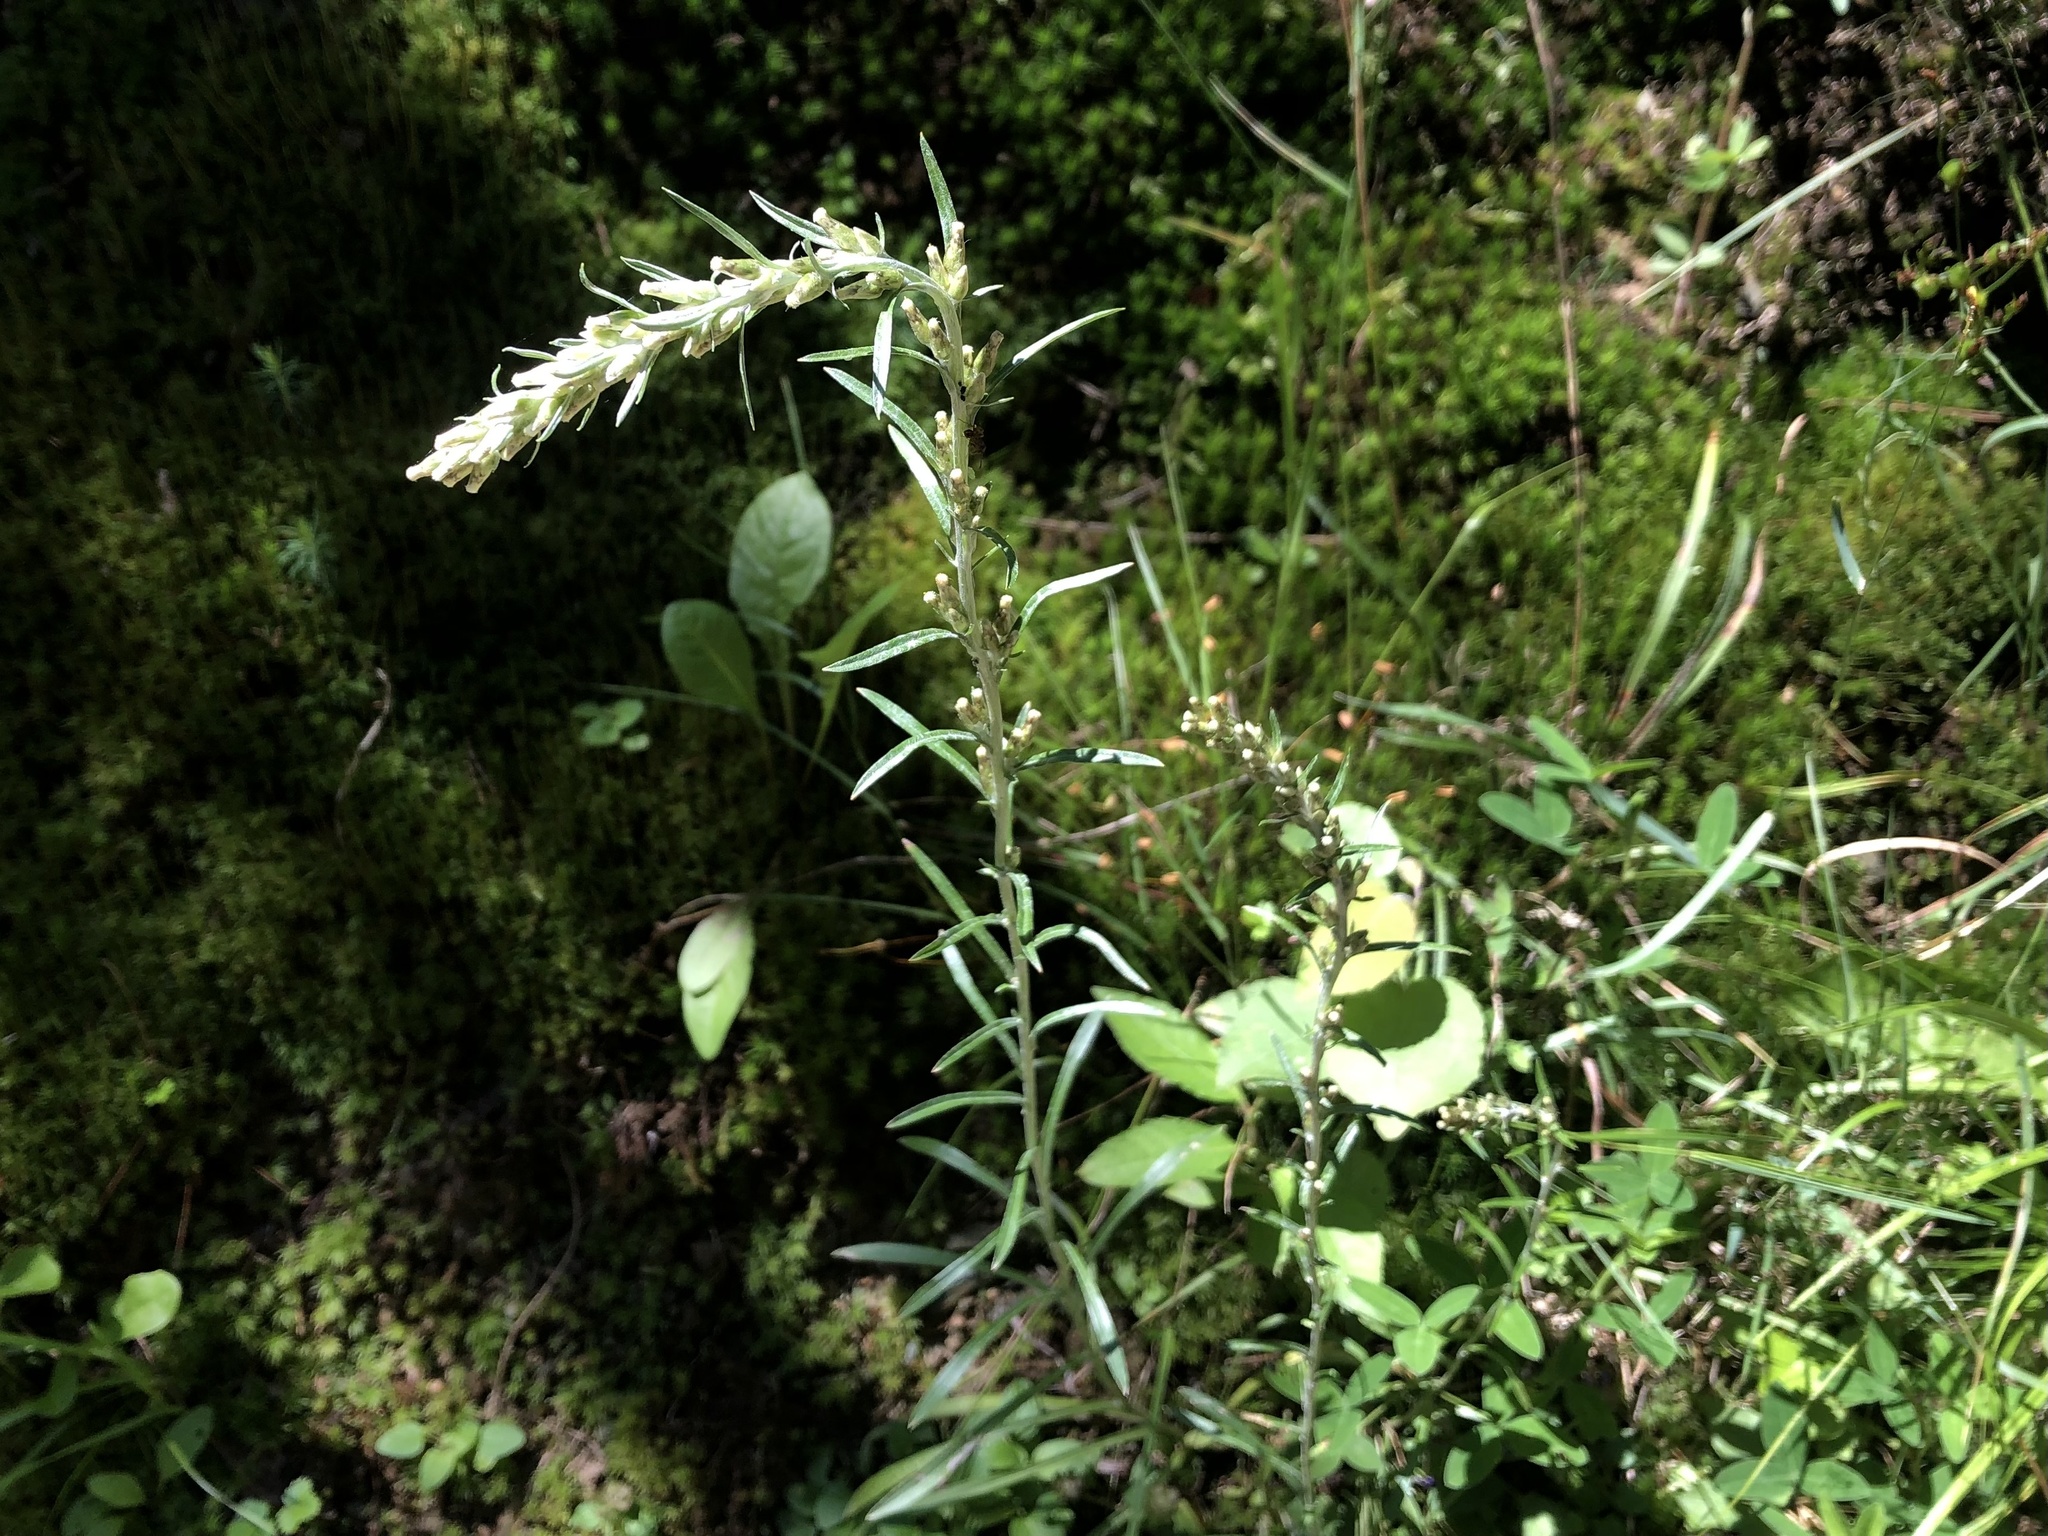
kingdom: Plantae
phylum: Tracheophyta
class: Magnoliopsida
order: Asterales
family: Asteraceae
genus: Omalotheca
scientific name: Omalotheca sylvatica
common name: Heath cudweed
